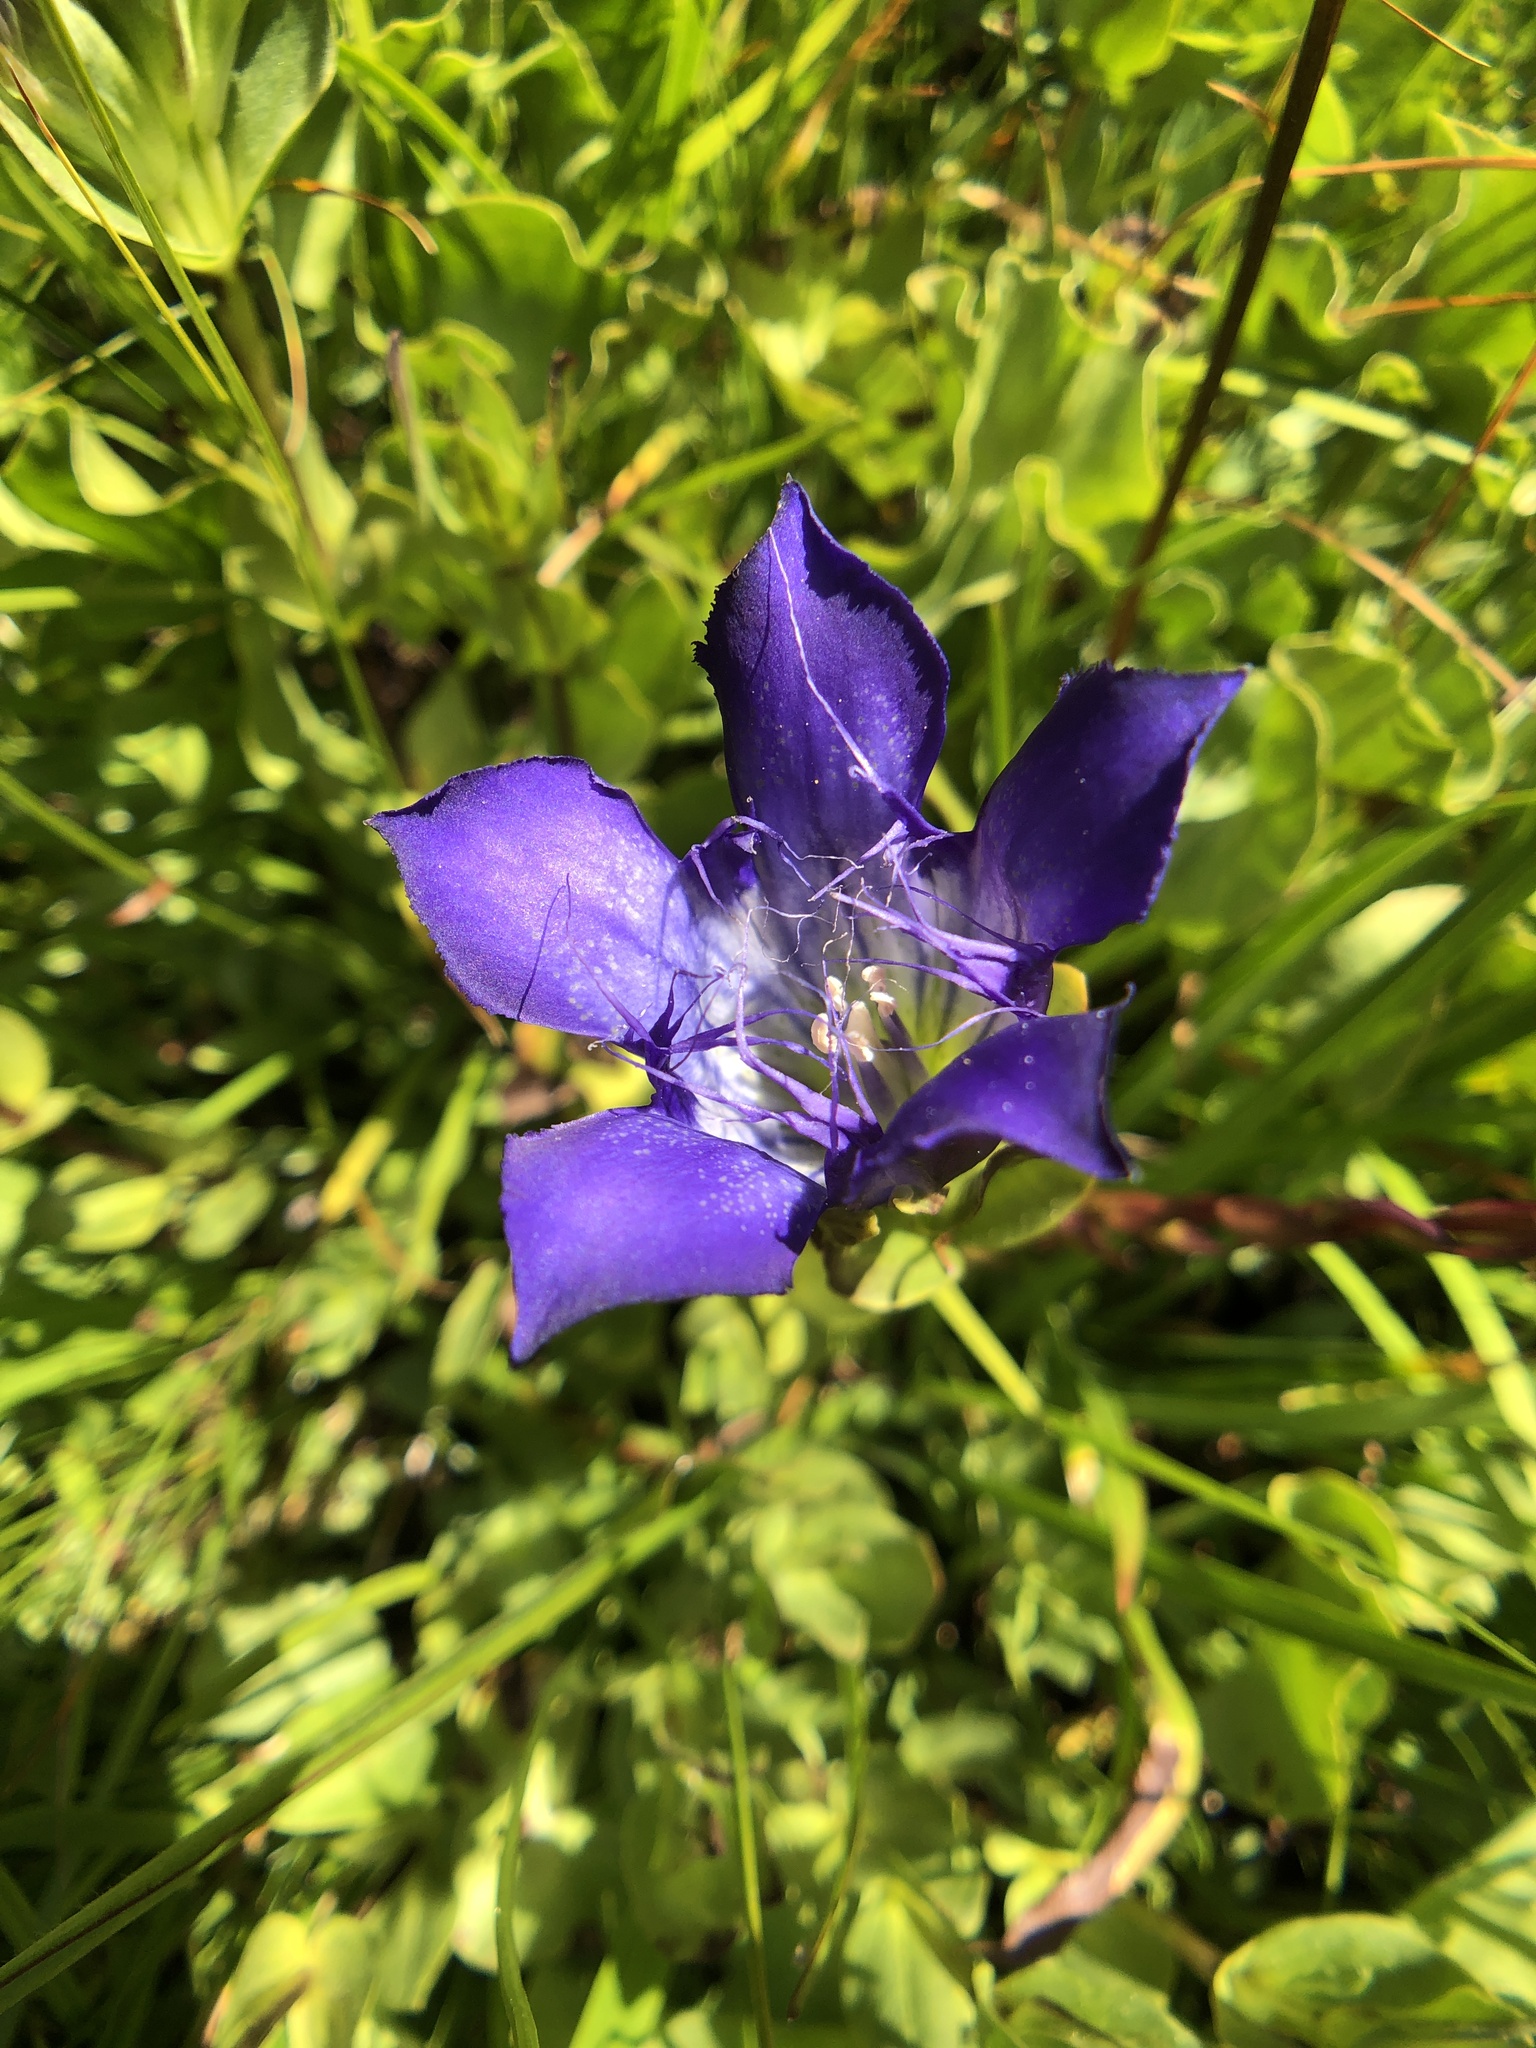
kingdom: Plantae
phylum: Tracheophyta
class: Magnoliopsida
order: Gentianales
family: Gentianaceae
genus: Gentiana
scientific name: Gentiana plurisetosa
